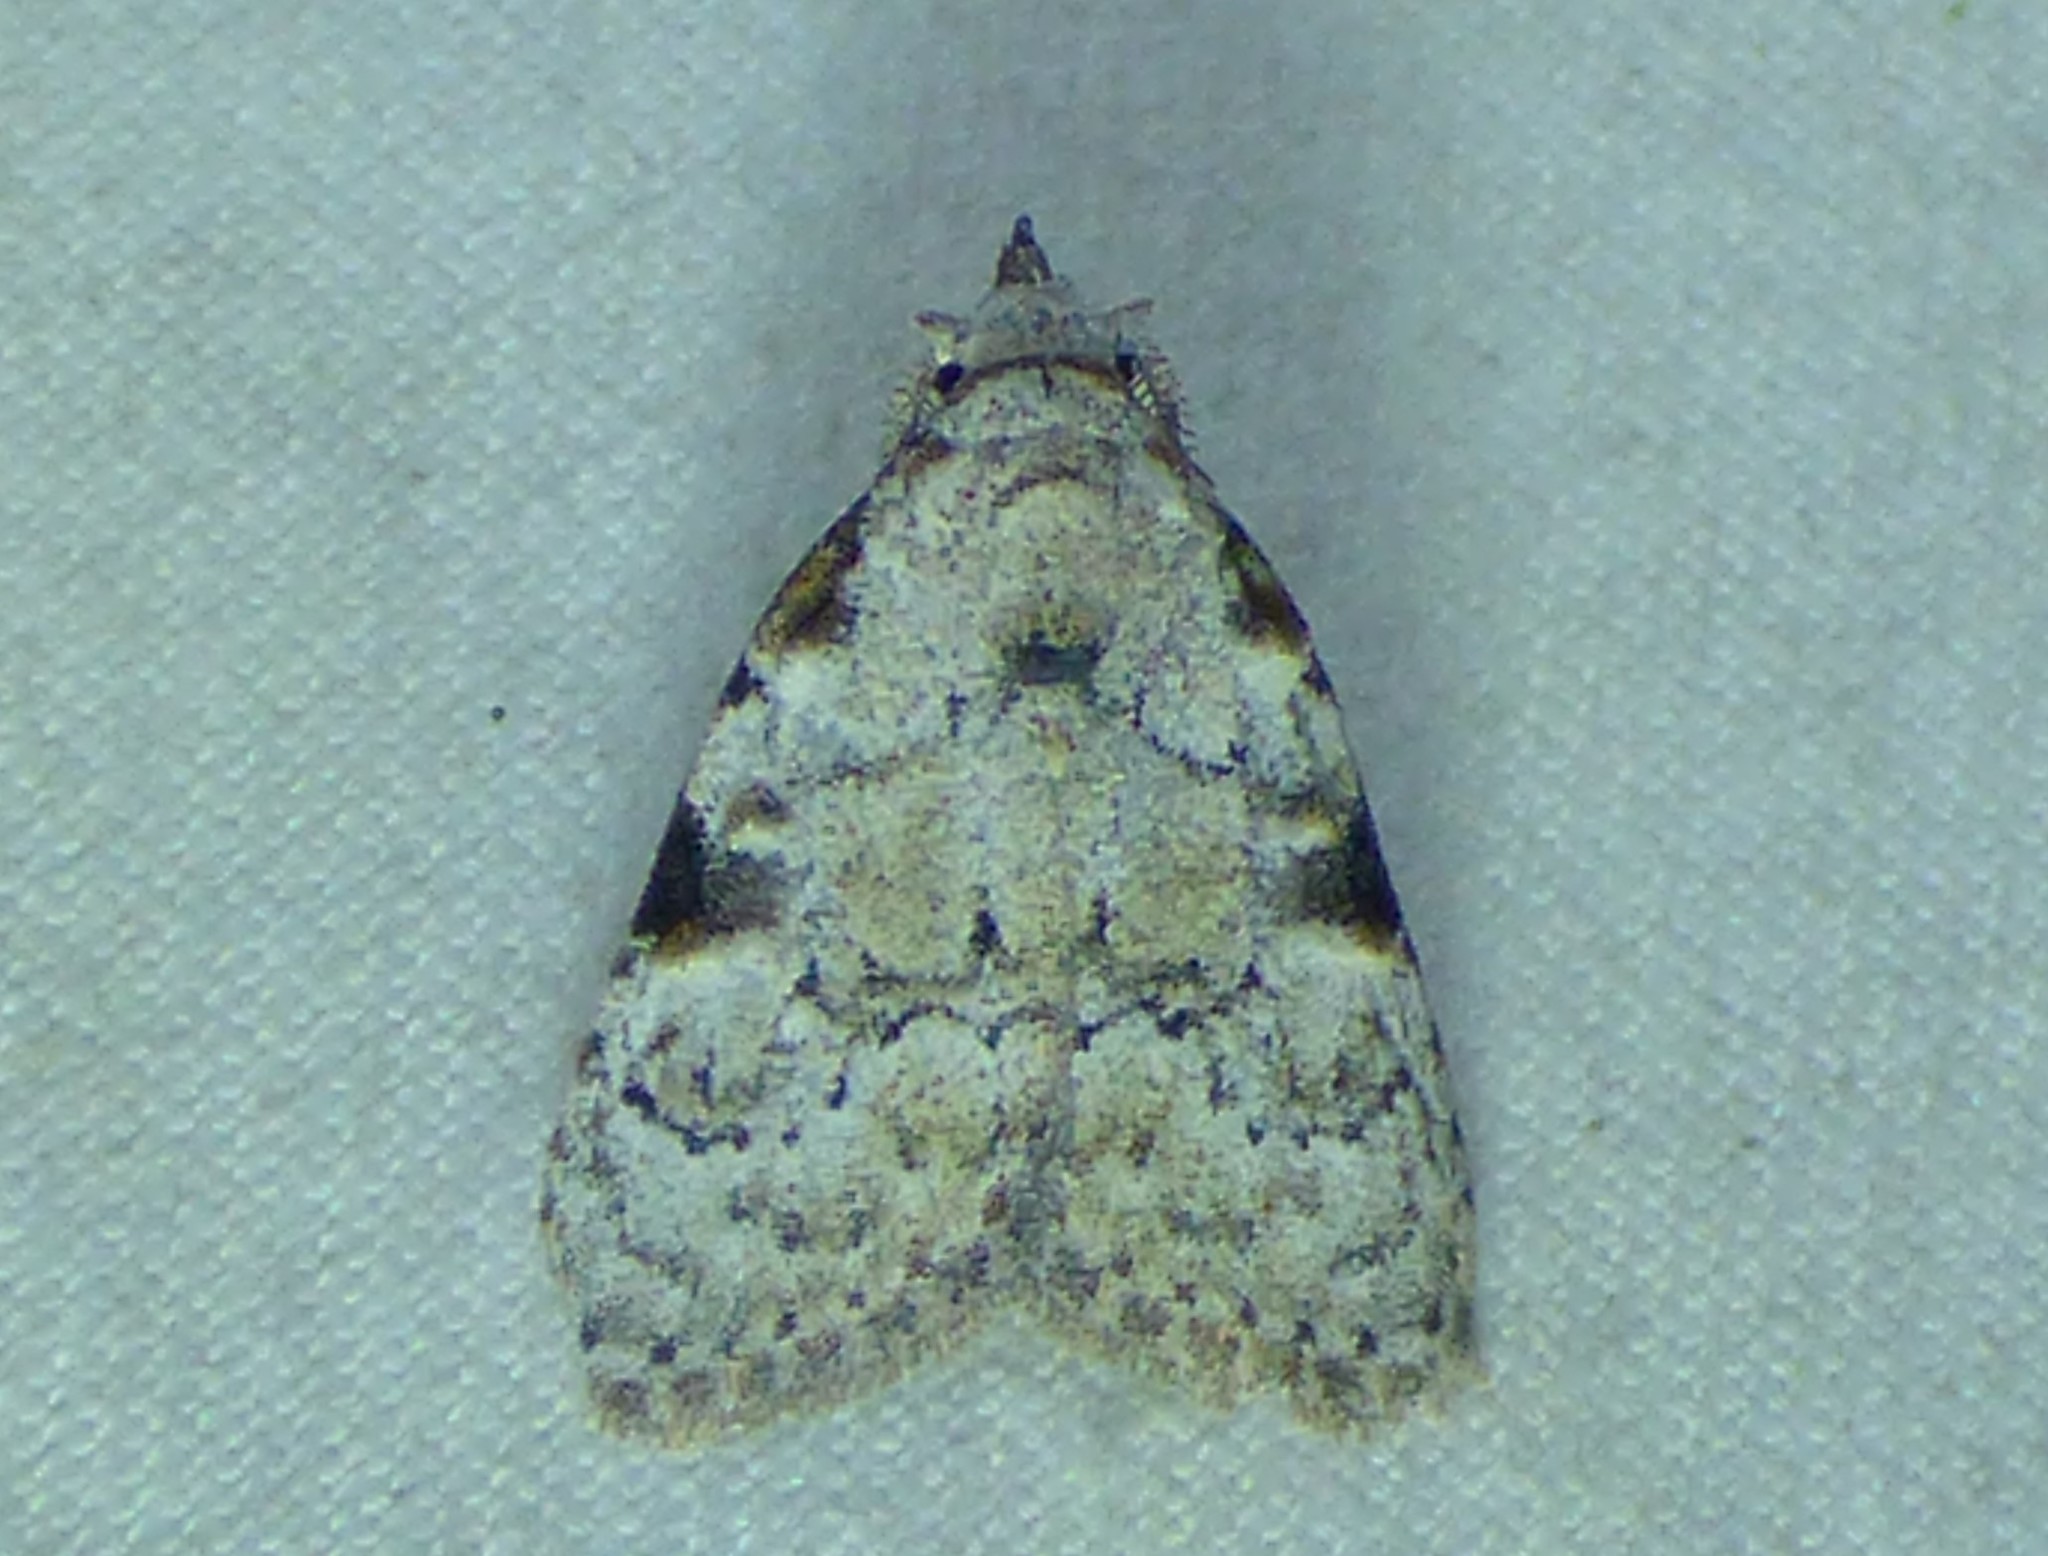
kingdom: Animalia
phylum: Arthropoda
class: Insecta
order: Lepidoptera
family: Nolidae
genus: Meganola
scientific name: Meganola minuscula
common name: Confused meganola moth
